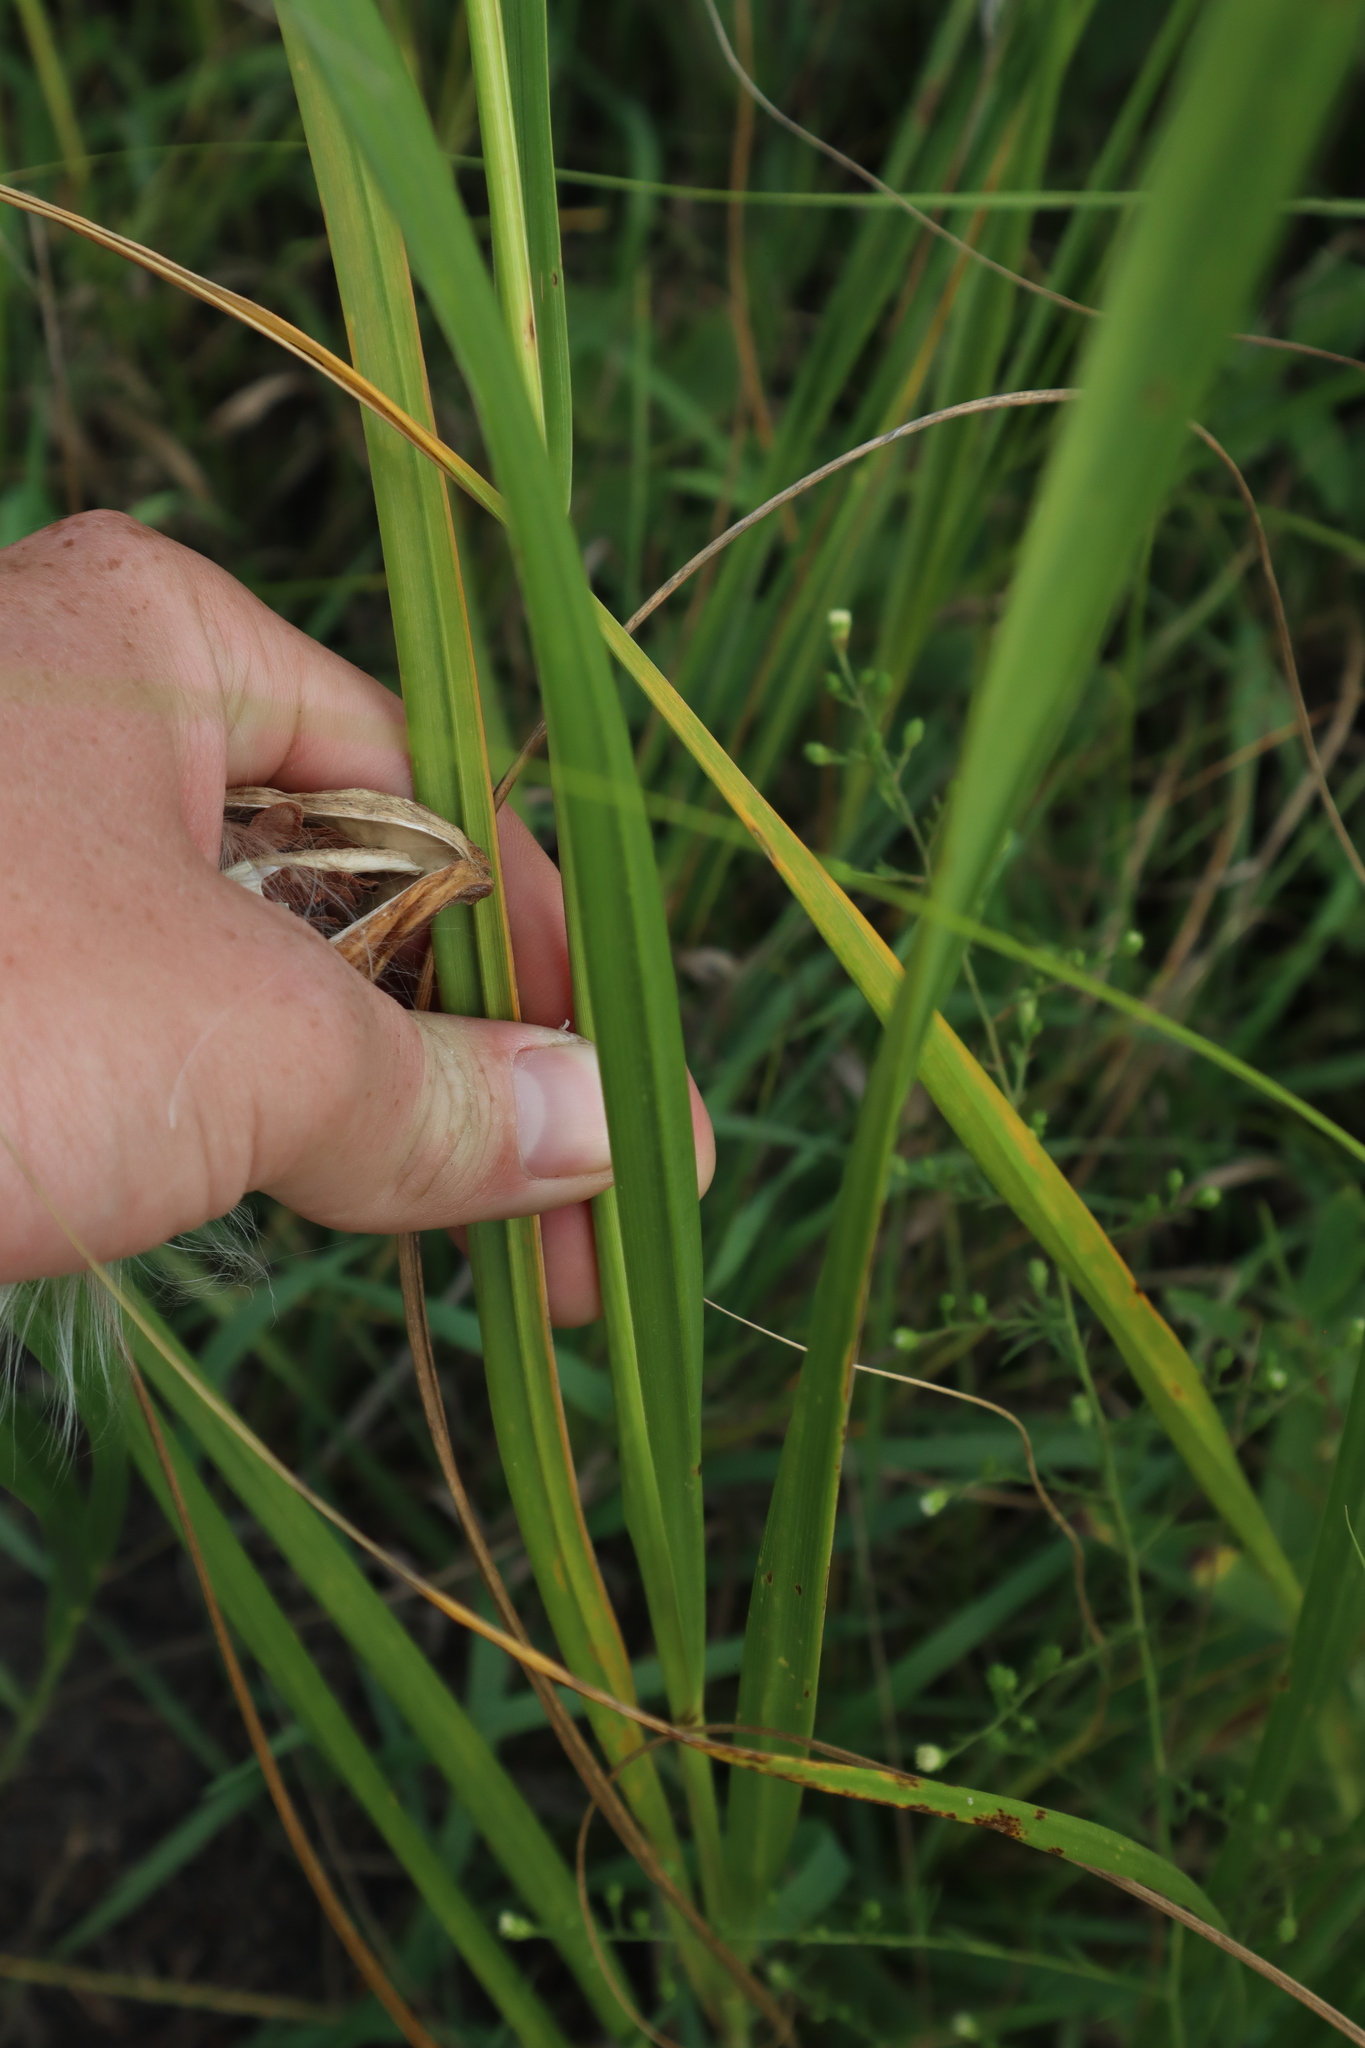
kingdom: Plantae
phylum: Tracheophyta
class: Liliopsida
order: Poales
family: Poaceae
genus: Sporobolus
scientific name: Sporobolus michauxianus
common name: Freshwater cordgrass
